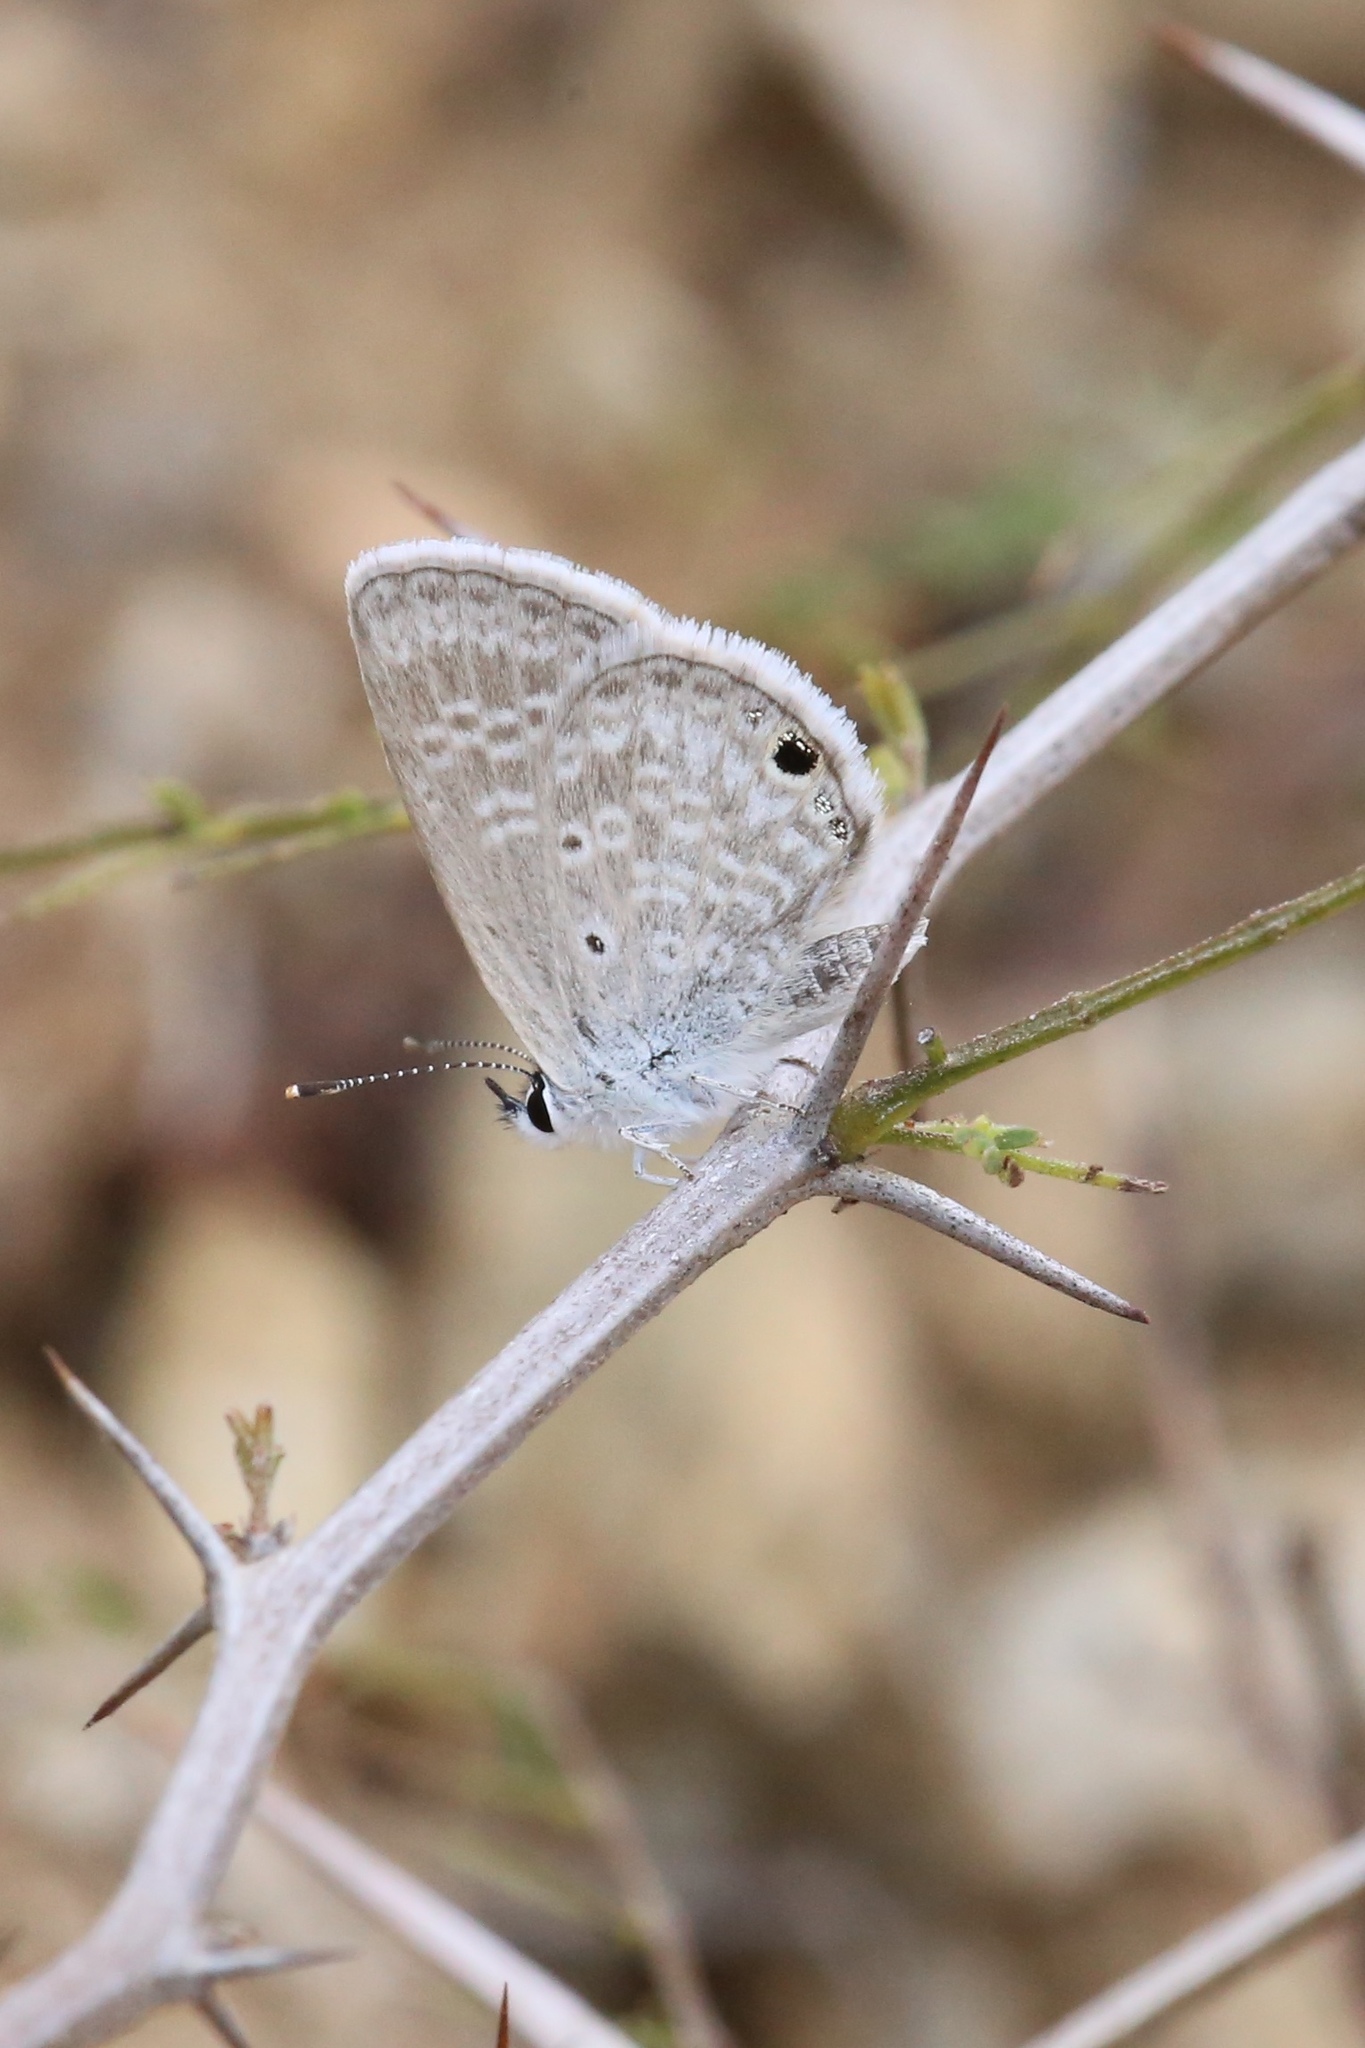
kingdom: Animalia
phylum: Arthropoda
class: Insecta
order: Lepidoptera
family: Lycaenidae
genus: Hemiargus
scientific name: Hemiargus ceraunus
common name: Ceraunus blue
